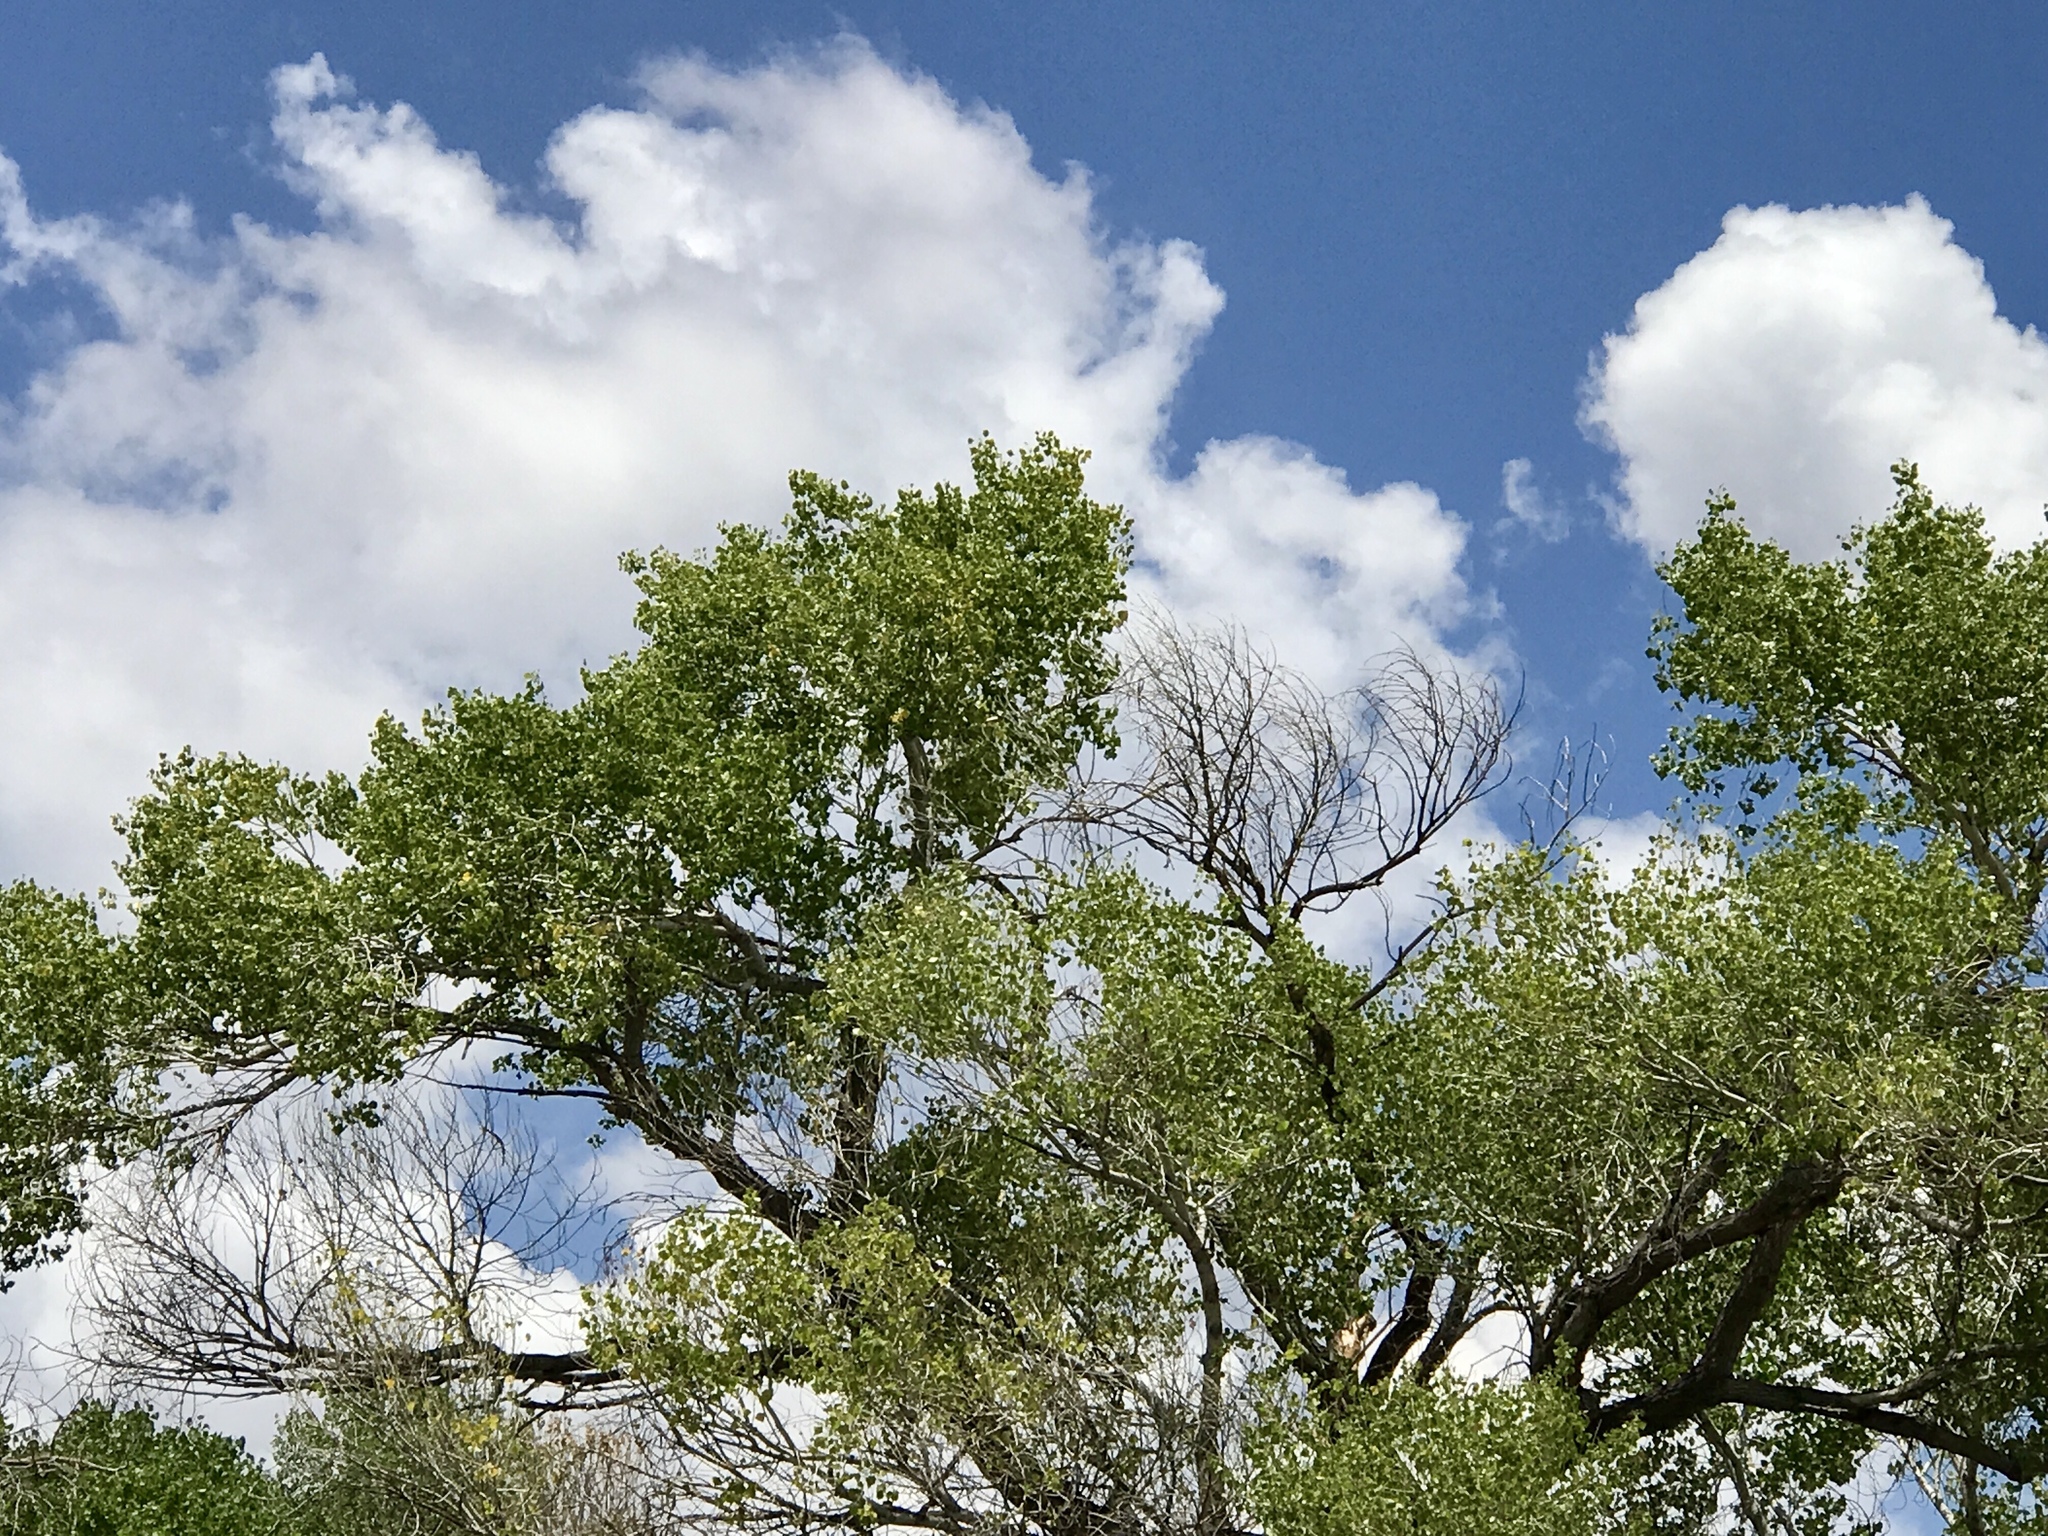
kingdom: Plantae
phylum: Tracheophyta
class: Magnoliopsida
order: Malpighiales
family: Salicaceae
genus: Populus
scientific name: Populus fremontii
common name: Fremont's cottonwood
